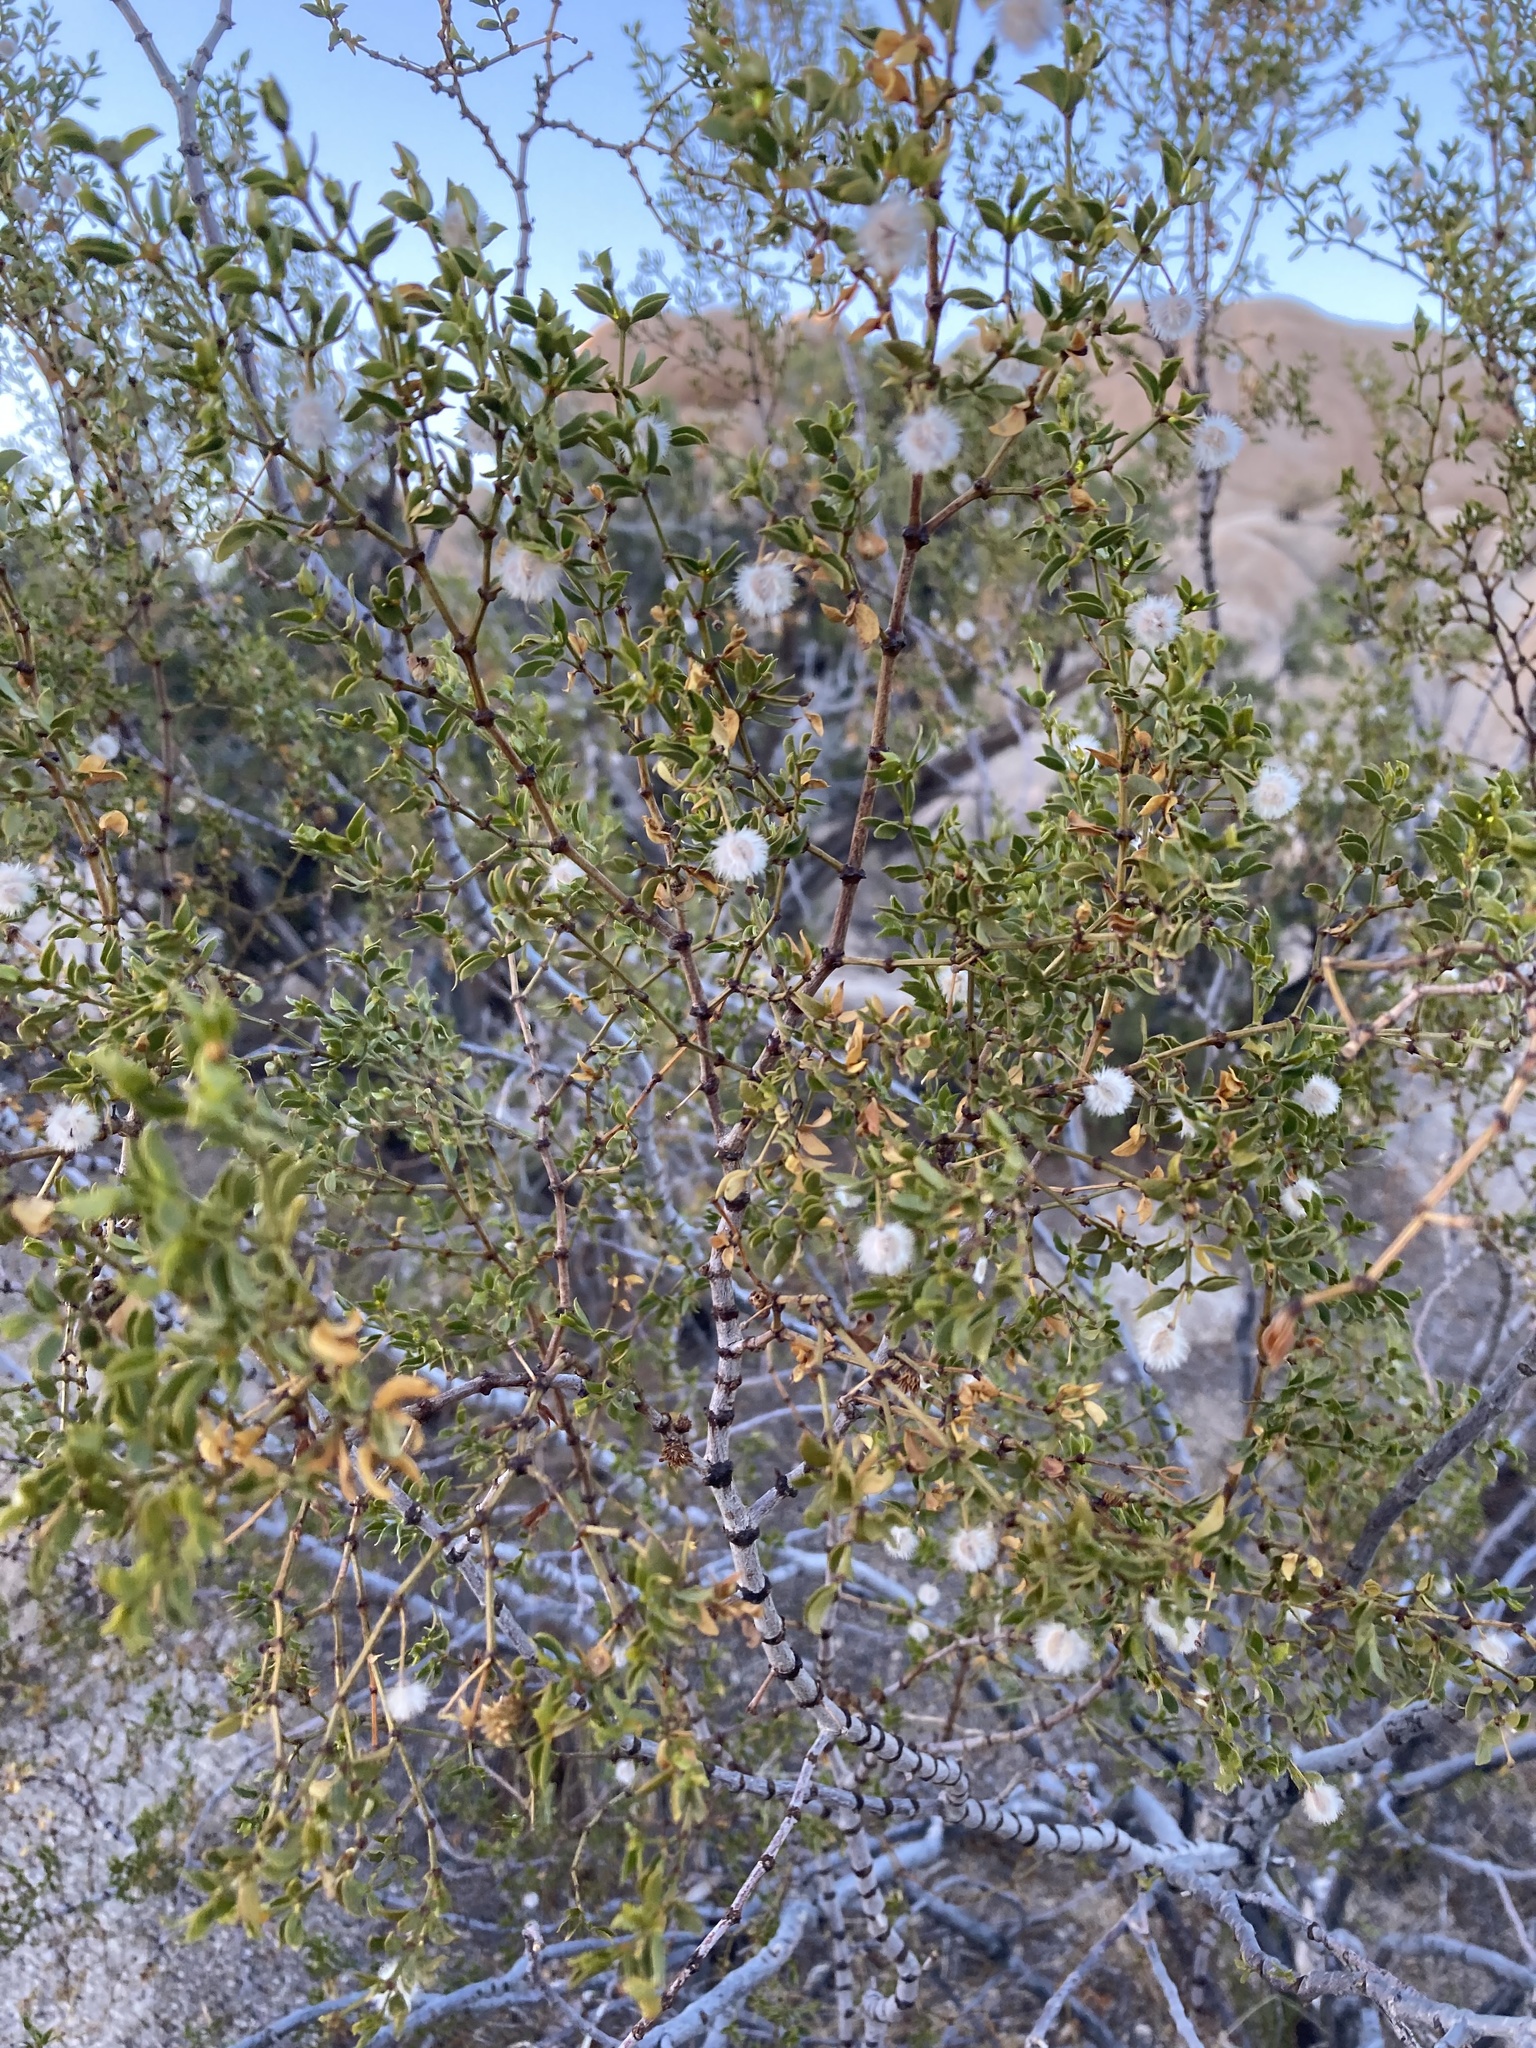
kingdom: Plantae
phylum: Tracheophyta
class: Magnoliopsida
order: Zygophyllales
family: Zygophyllaceae
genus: Larrea
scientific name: Larrea tridentata
